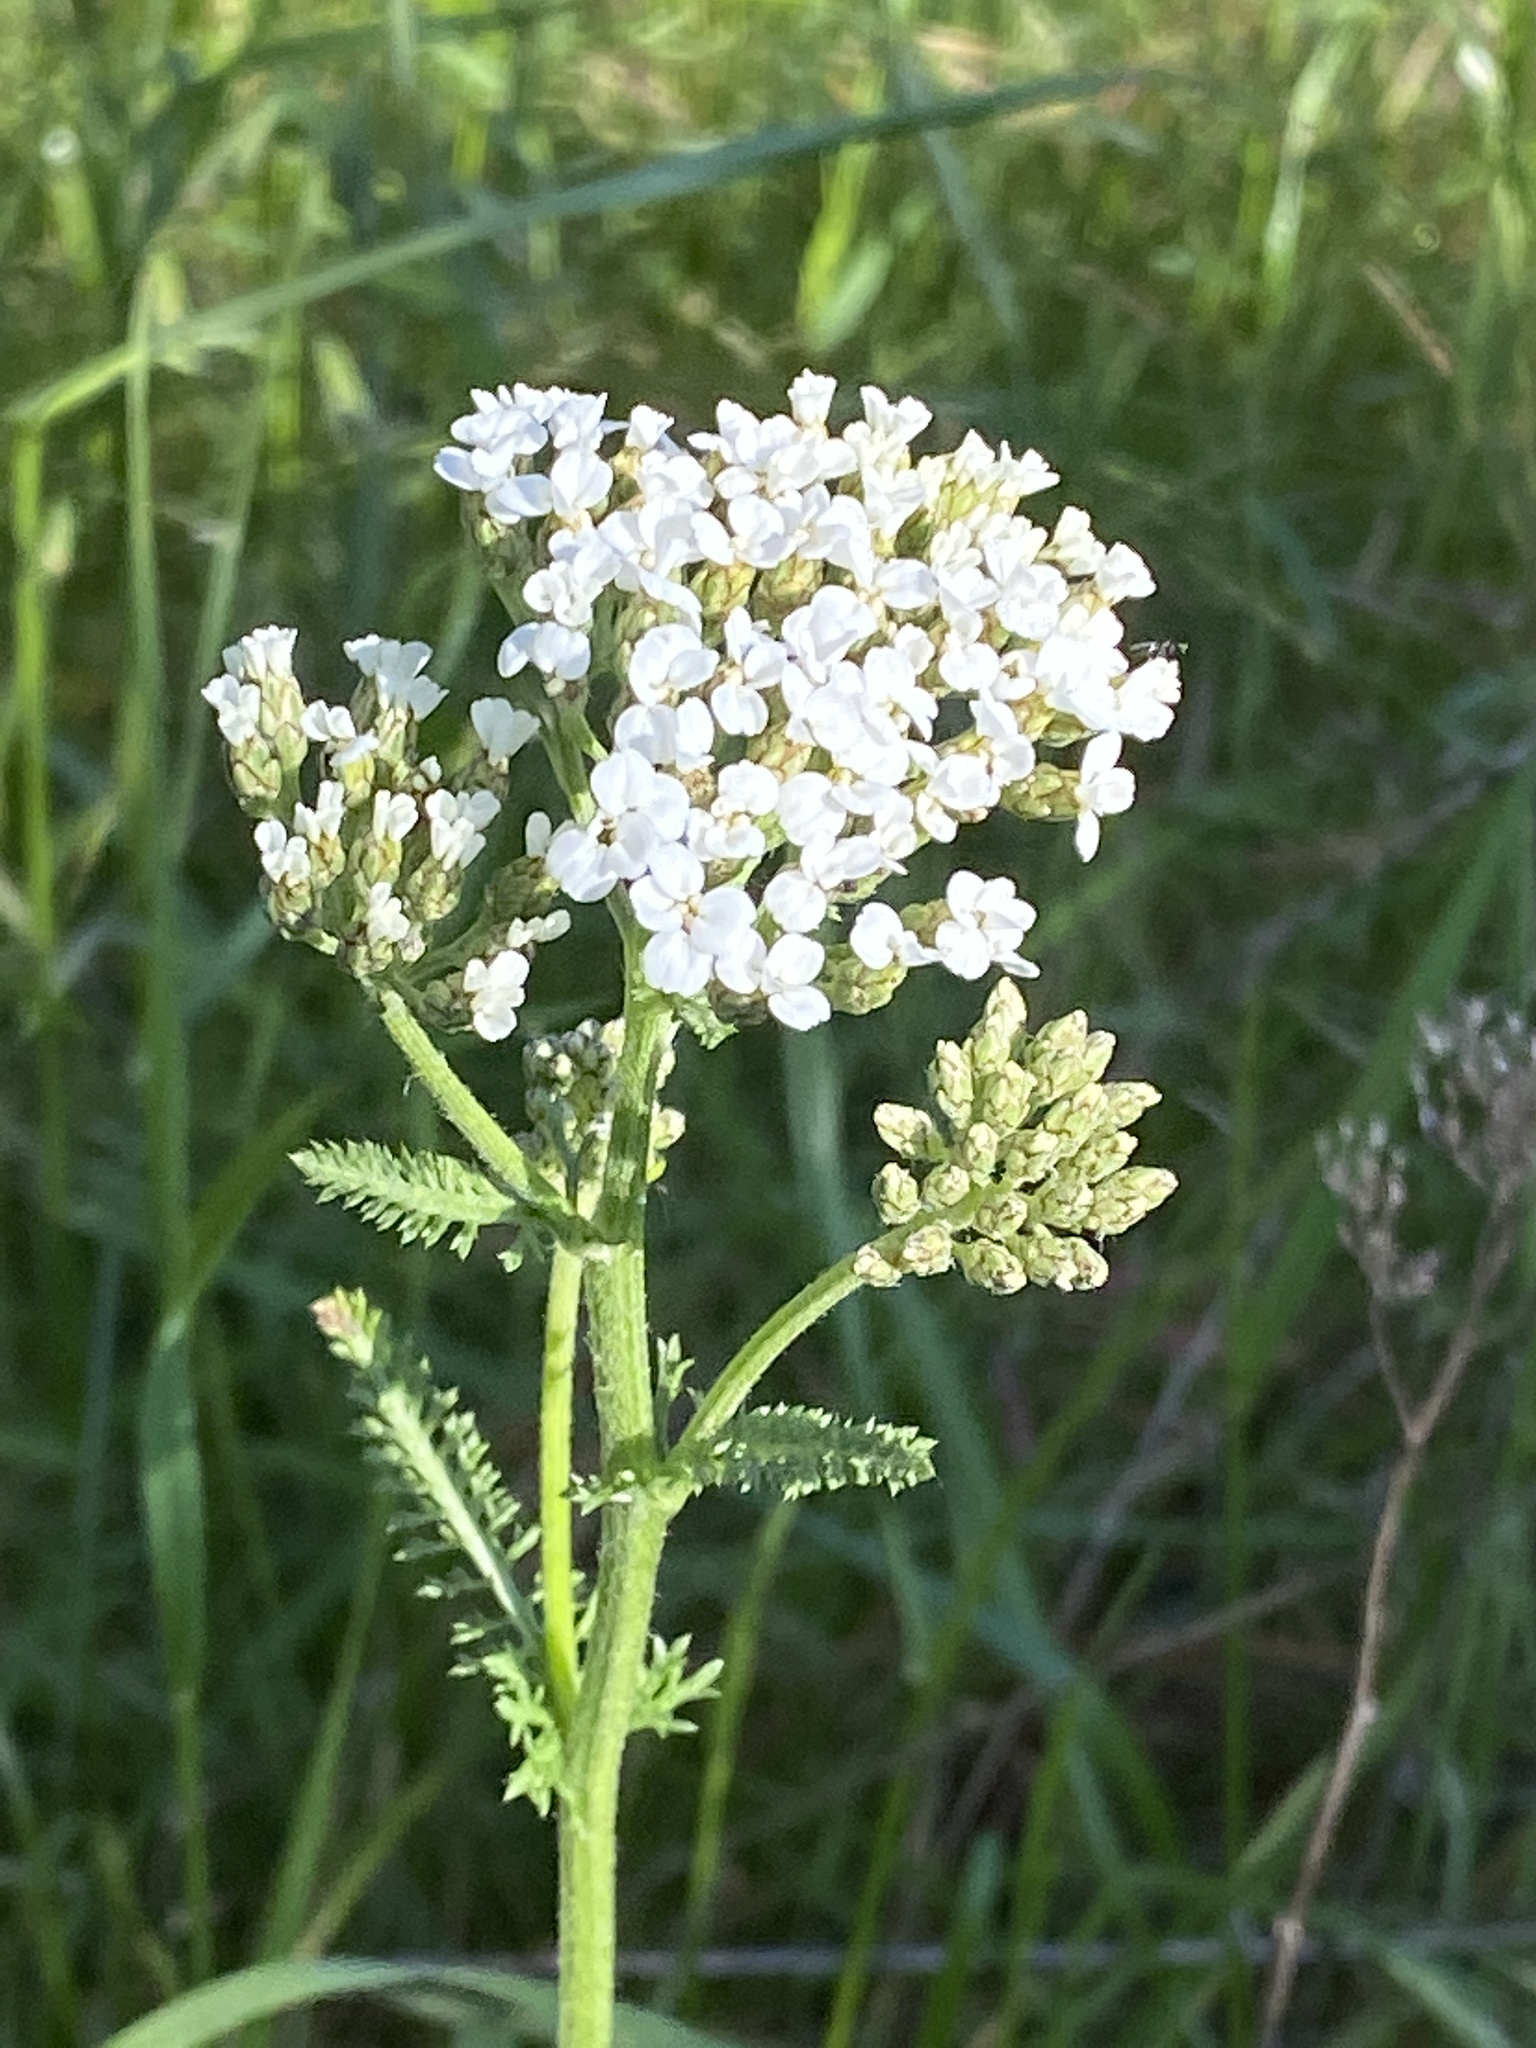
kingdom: Plantae
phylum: Tracheophyta
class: Magnoliopsida
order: Asterales
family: Asteraceae
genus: Achillea
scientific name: Achillea millefolium
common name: Yarrow
